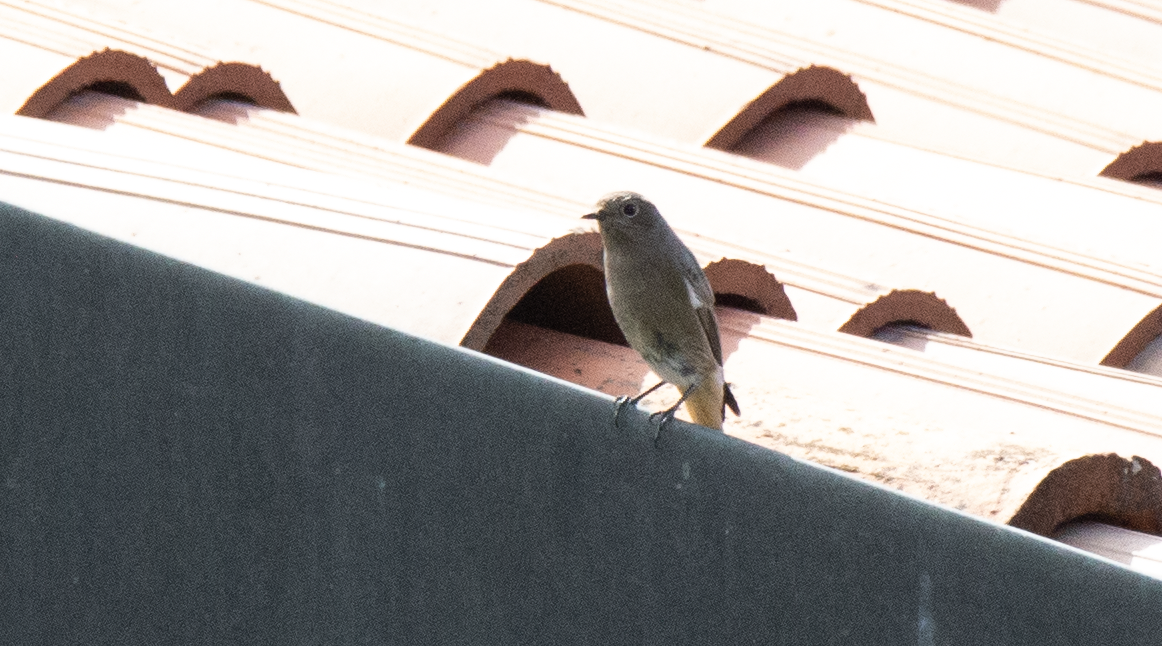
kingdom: Animalia
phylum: Chordata
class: Aves
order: Passeriformes
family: Muscicapidae
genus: Phoenicurus
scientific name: Phoenicurus ochruros
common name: Black redstart
